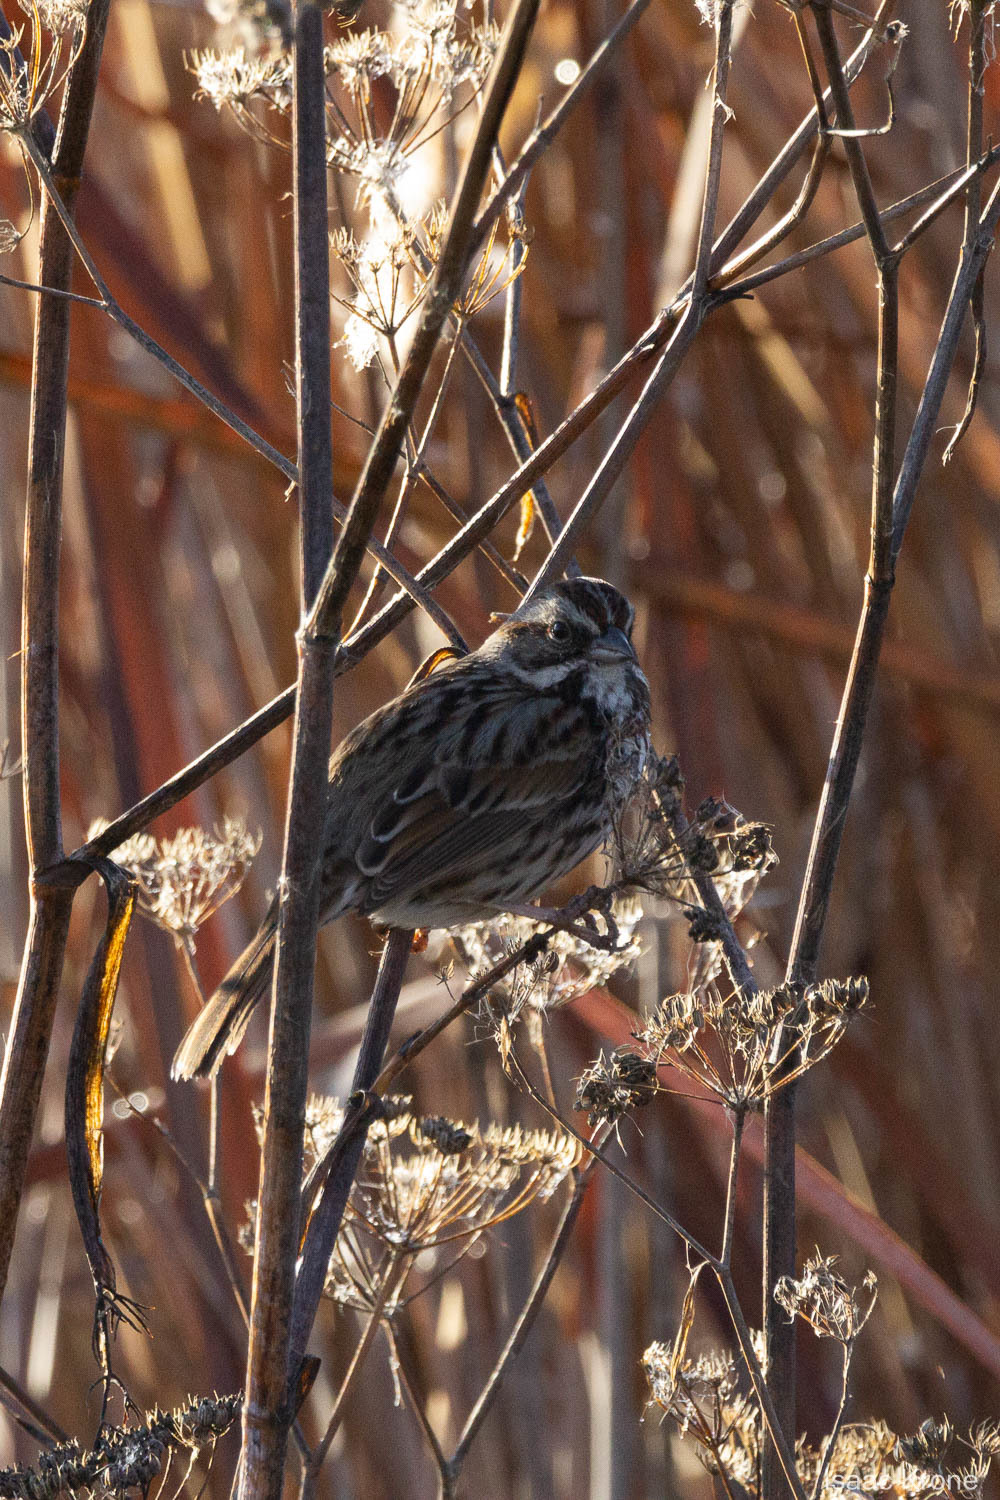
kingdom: Animalia
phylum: Chordata
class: Aves
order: Passeriformes
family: Passerellidae
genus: Melospiza
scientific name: Melospiza melodia
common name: Song sparrow
